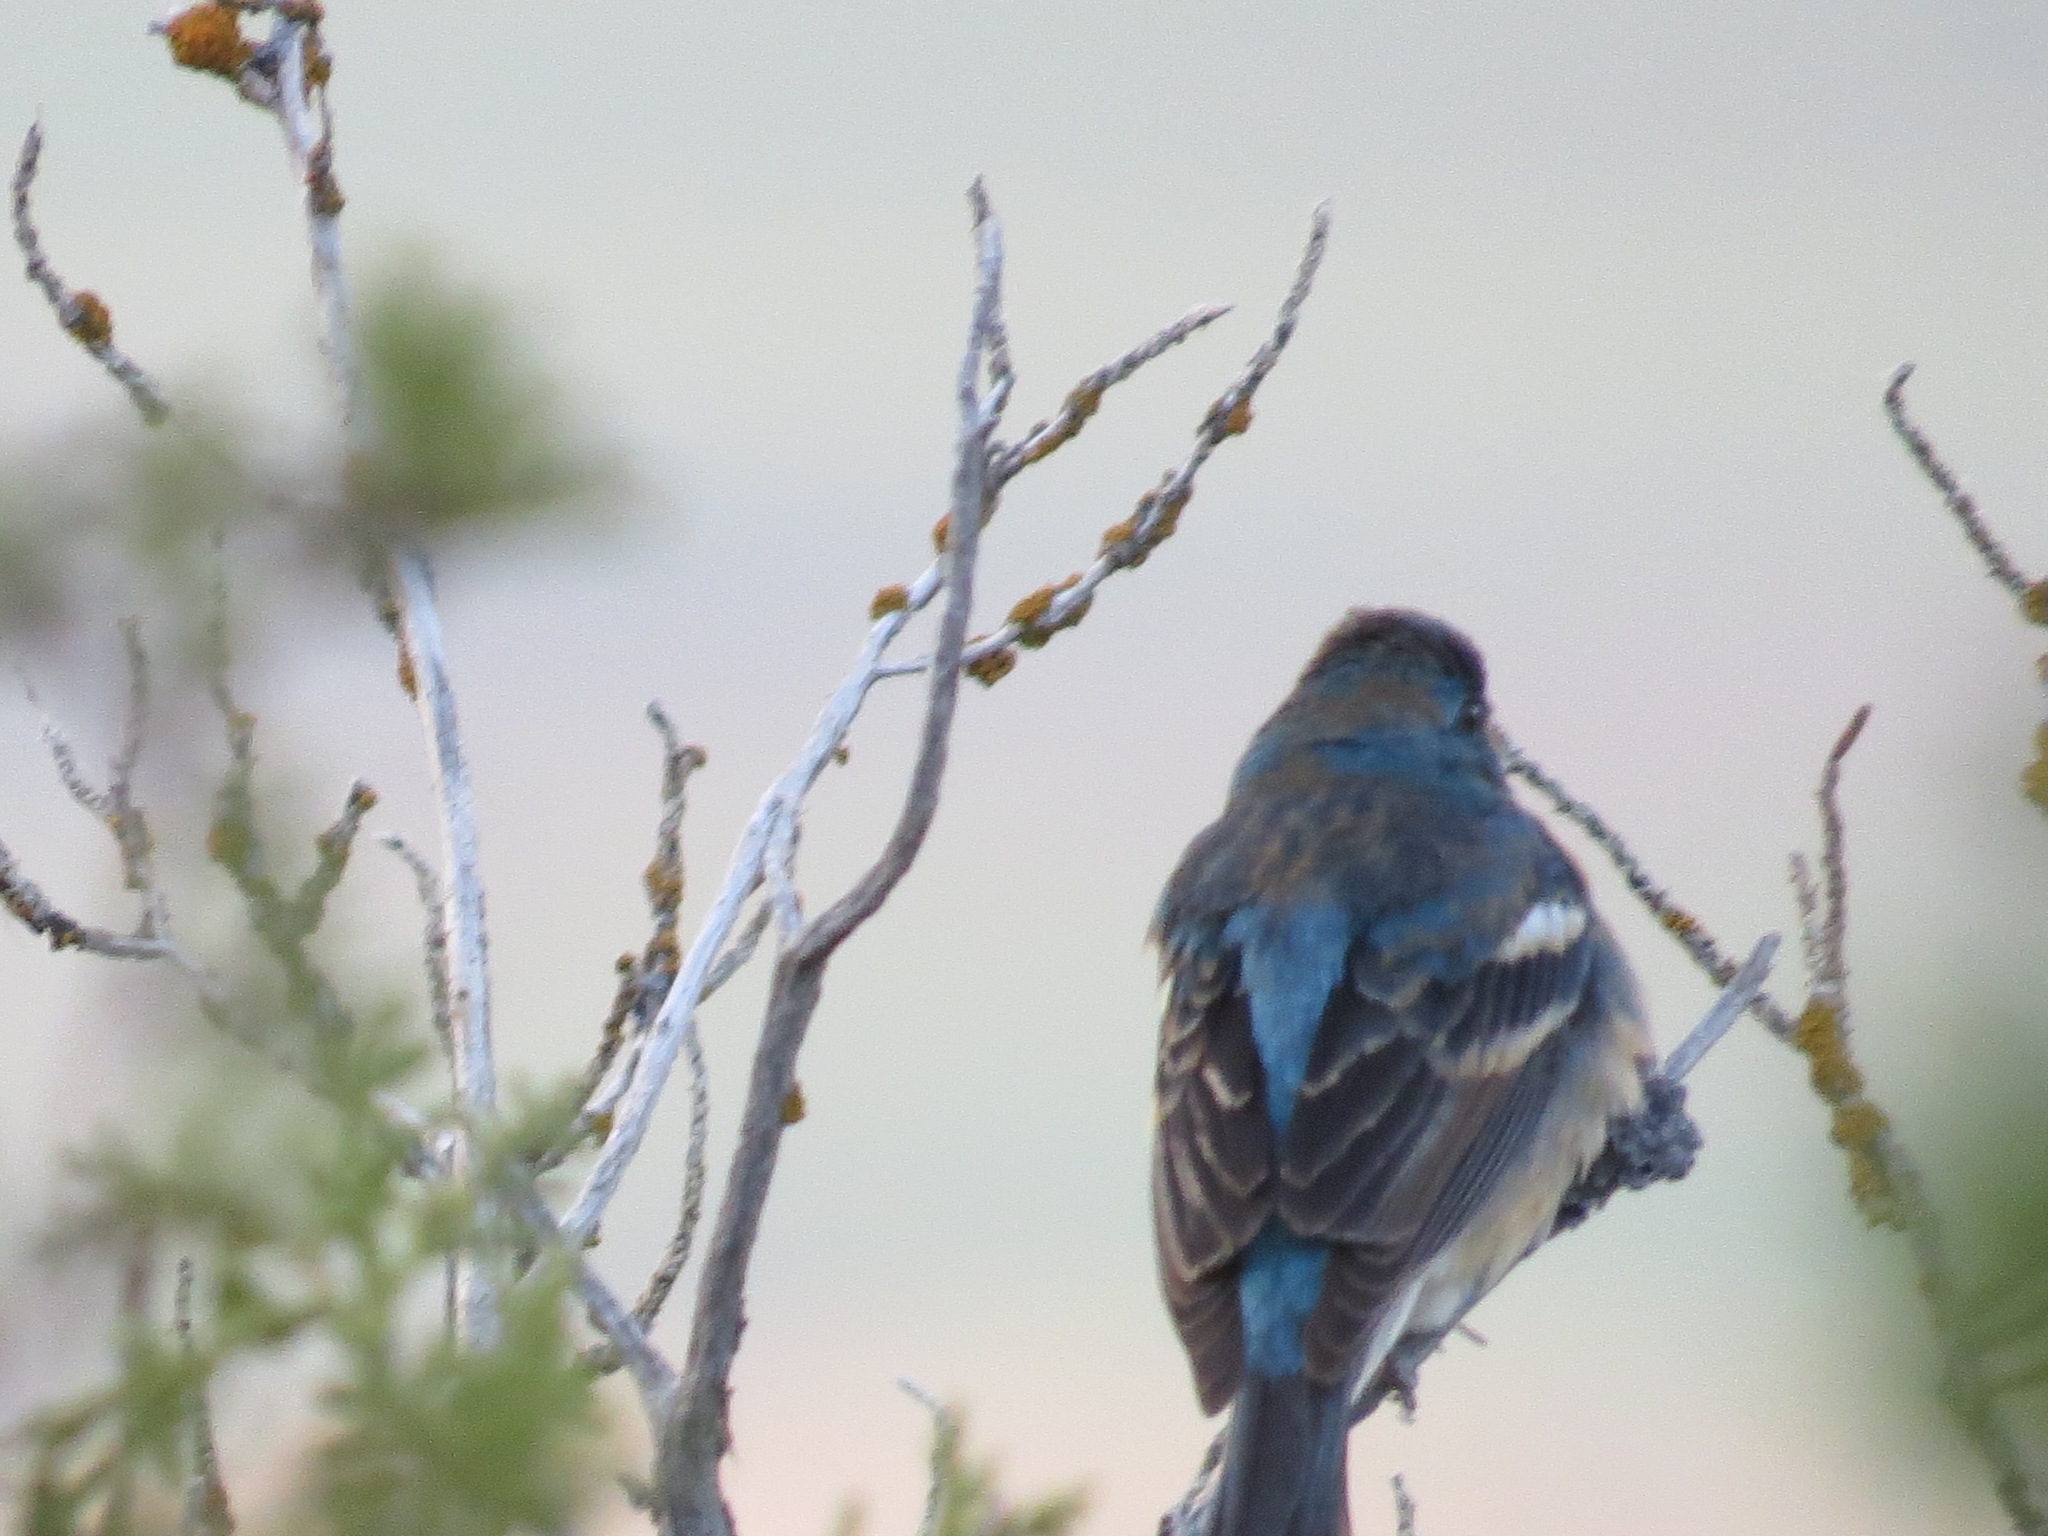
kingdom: Animalia
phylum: Chordata
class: Aves
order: Passeriformes
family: Cardinalidae
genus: Passerina
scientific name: Passerina amoena
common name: Lazuli bunting
